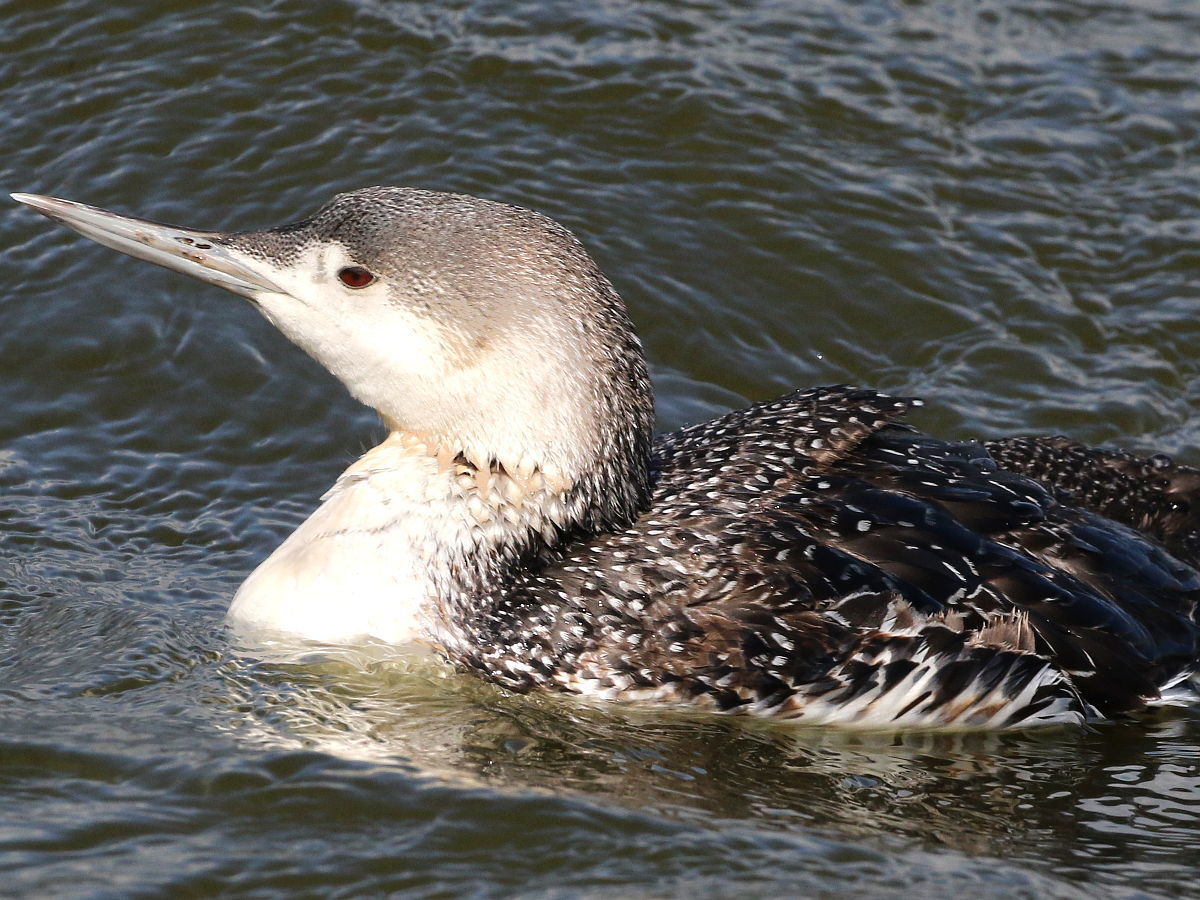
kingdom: Animalia
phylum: Chordata
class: Aves
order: Gaviiformes
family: Gaviidae
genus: Gavia
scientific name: Gavia stellata
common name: Red-throated loon
